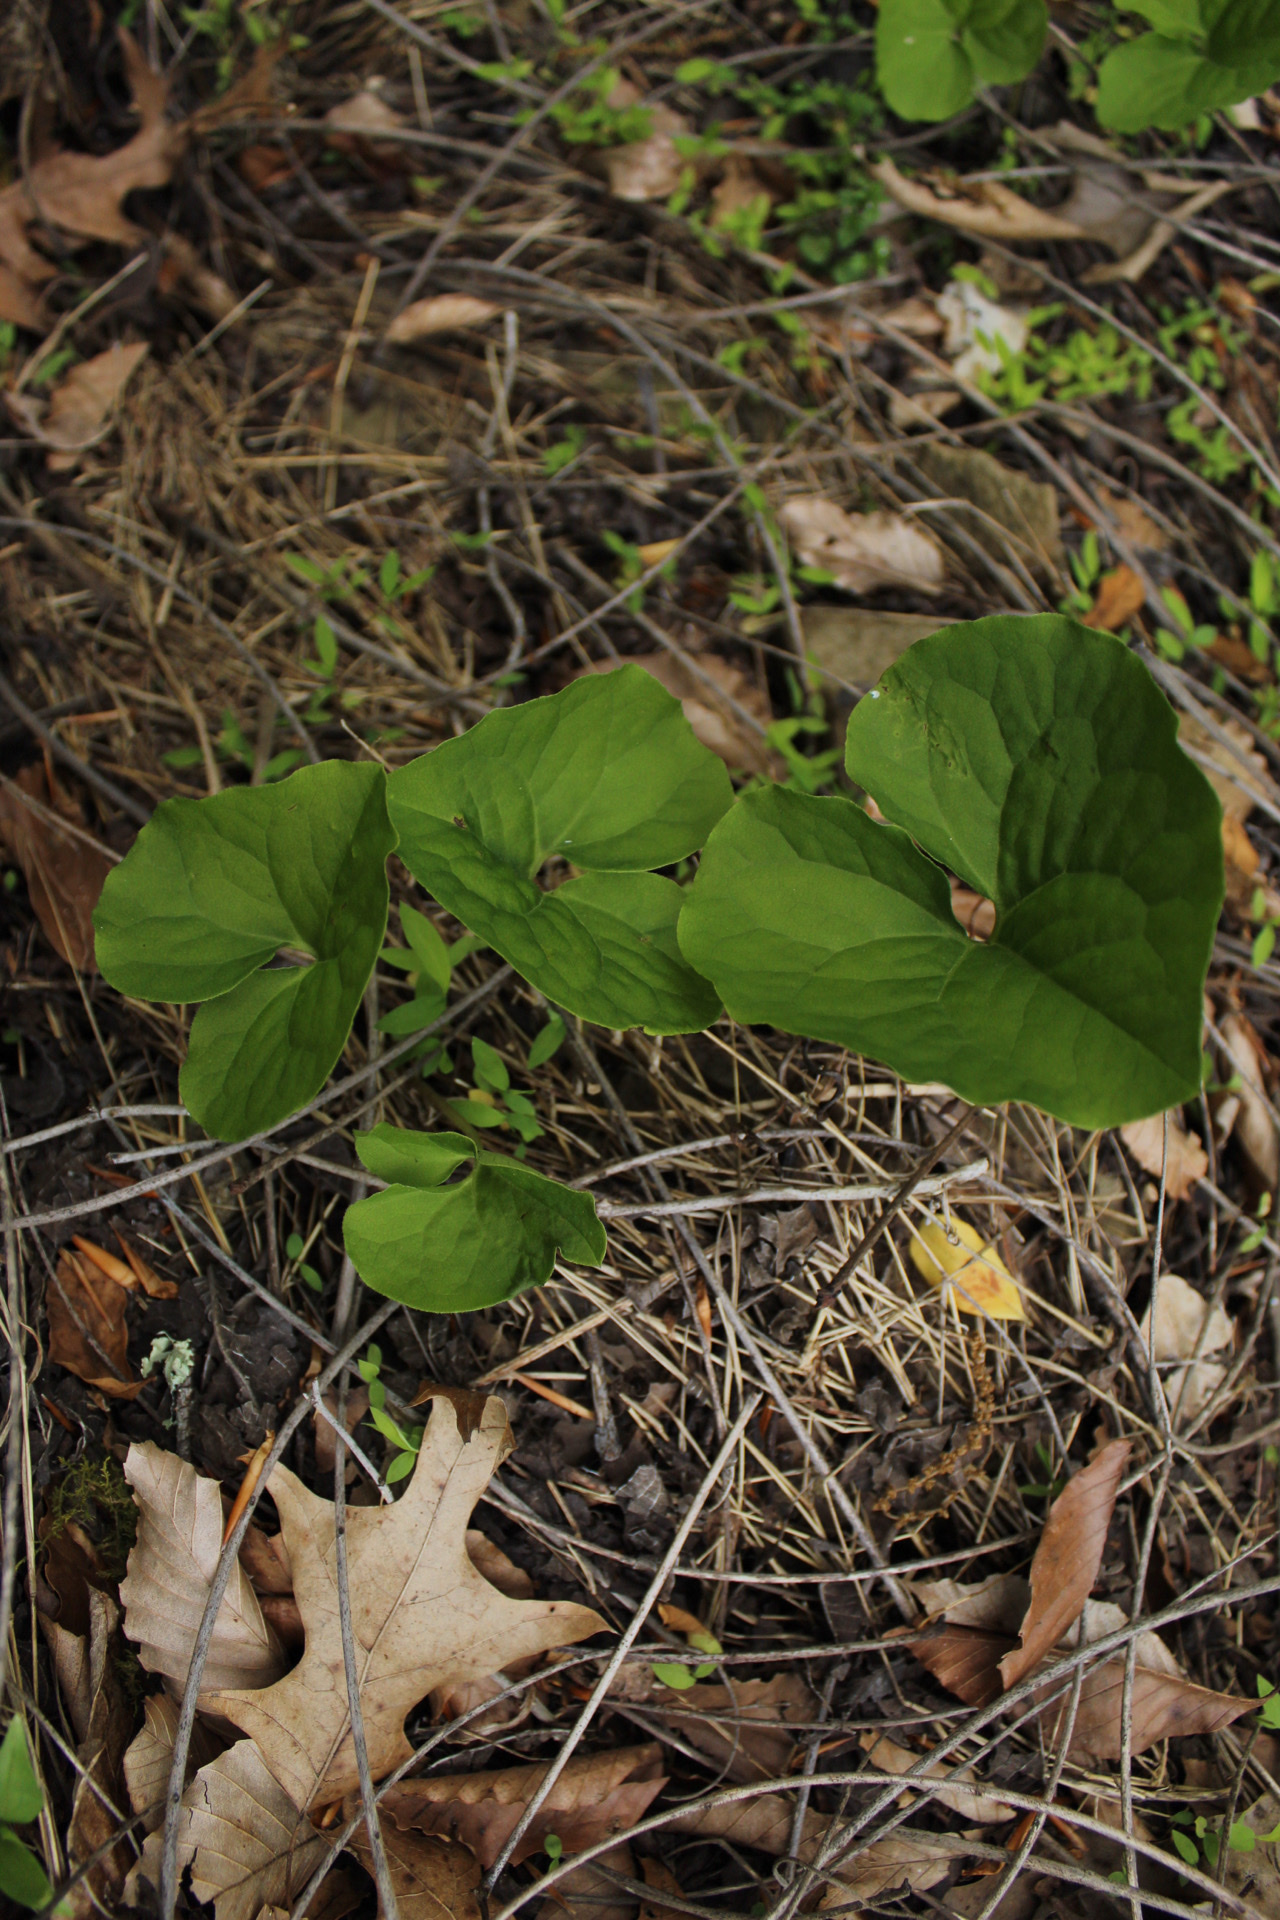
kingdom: Plantae
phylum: Tracheophyta
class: Magnoliopsida
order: Piperales
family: Aristolochiaceae
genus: Asarum
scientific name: Asarum canadense
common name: Wild ginger
